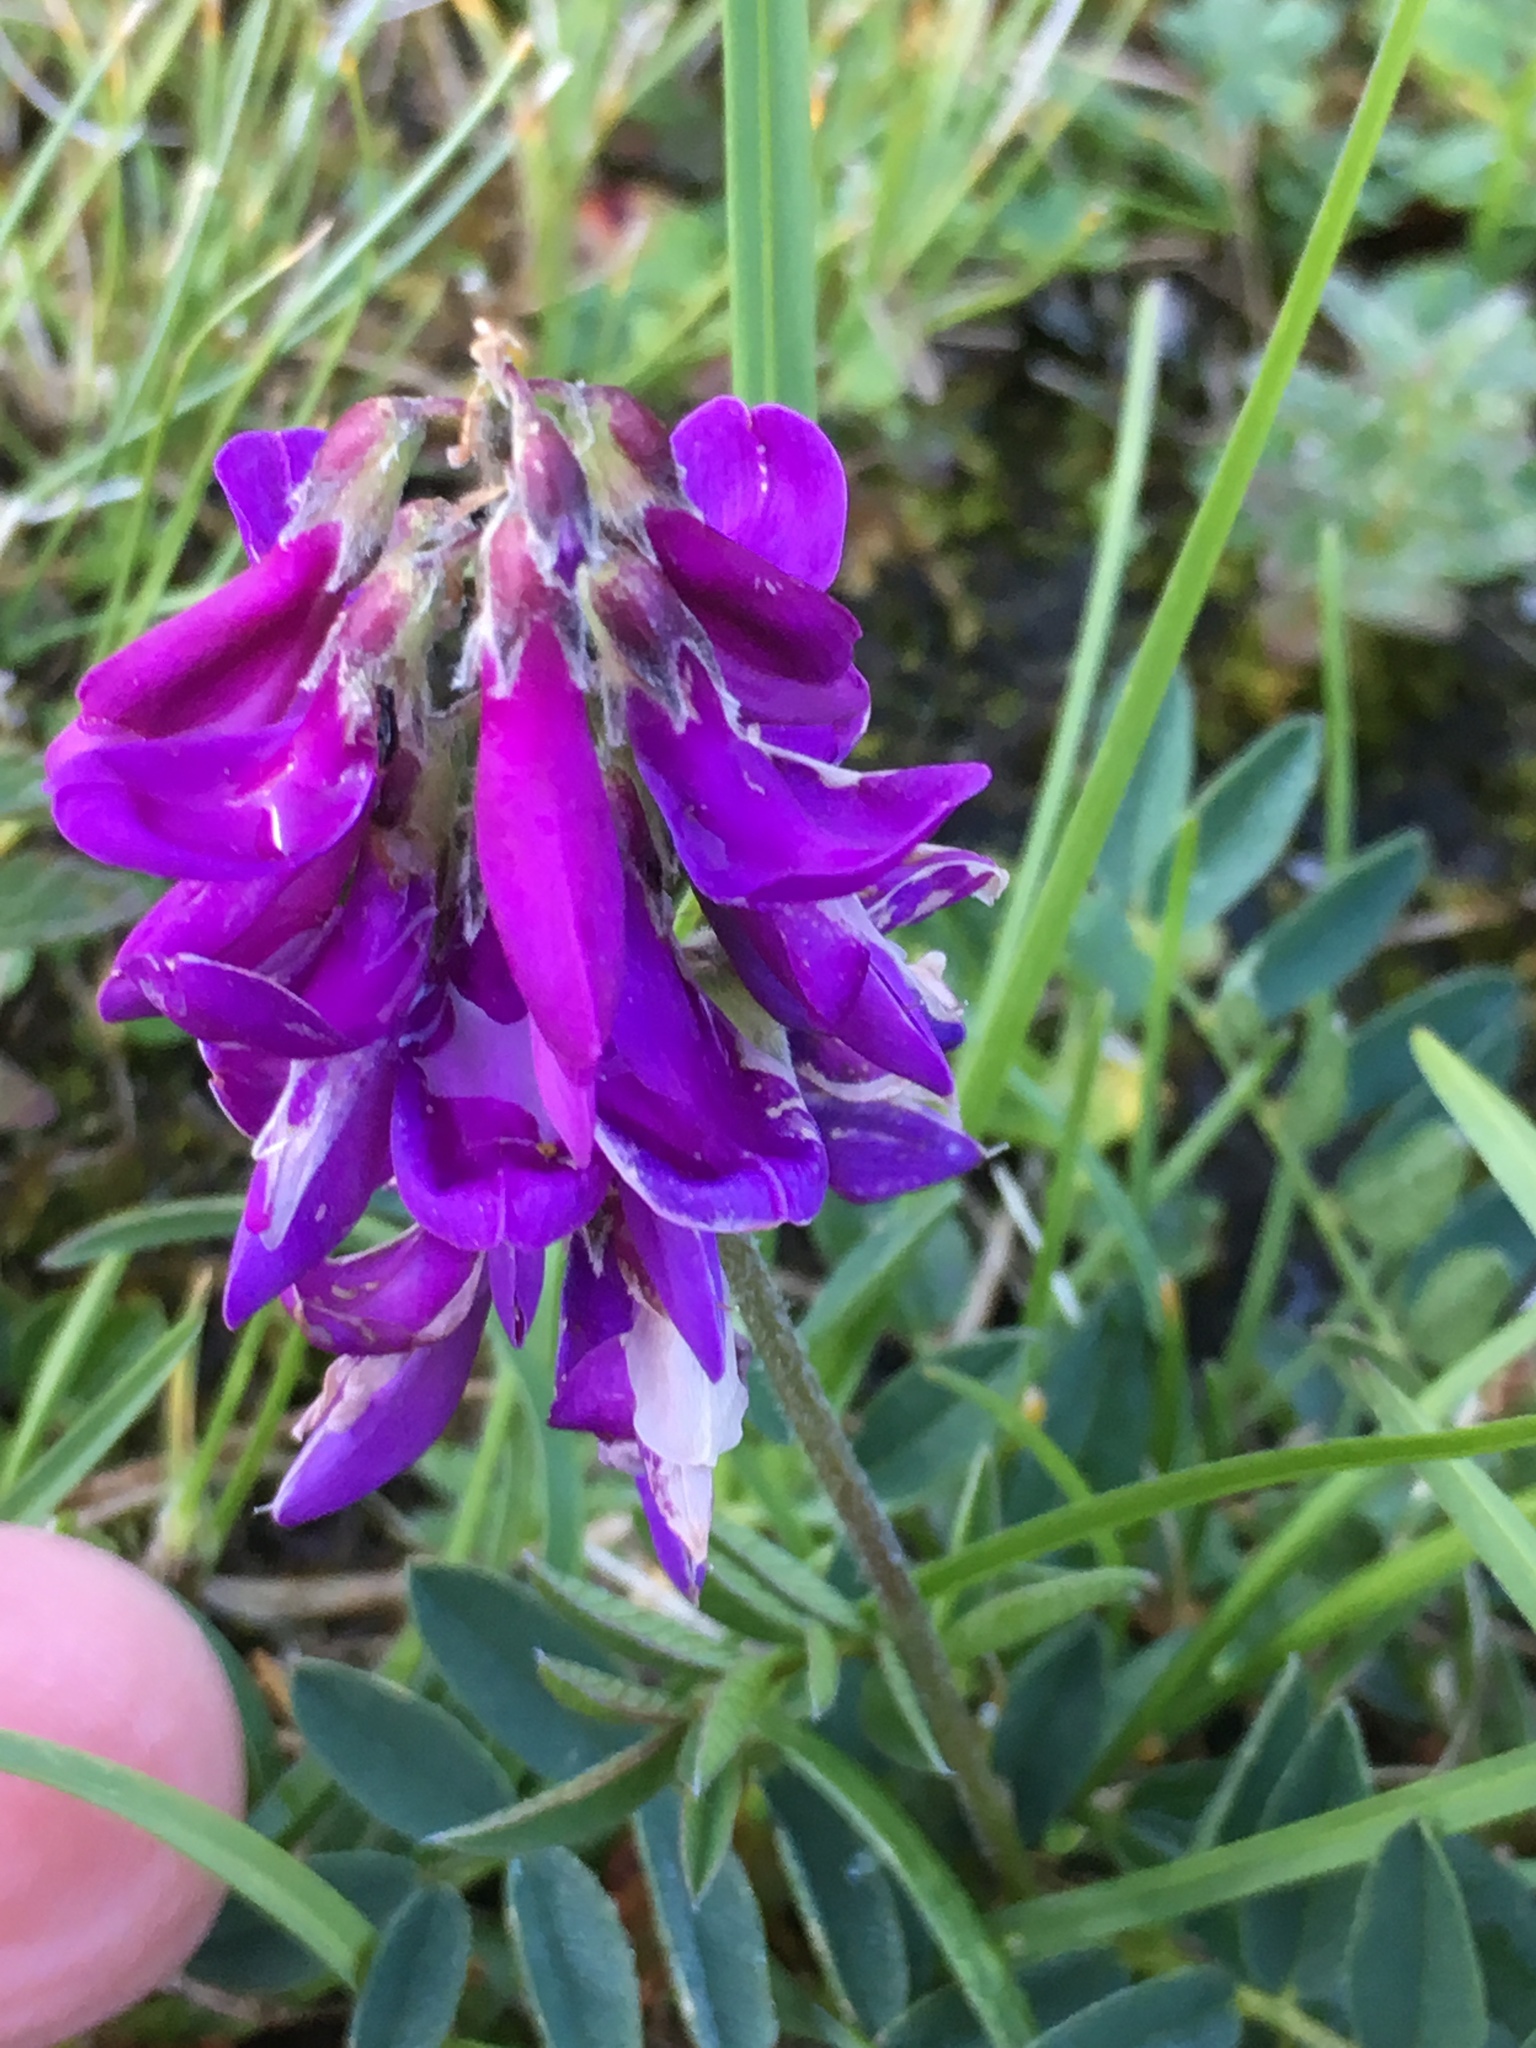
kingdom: Plantae
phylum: Tracheophyta
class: Magnoliopsida
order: Fabales
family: Fabaceae
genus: Hedysarum
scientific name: Hedysarum hedysaroides
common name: Alpine french-honeysuckle
